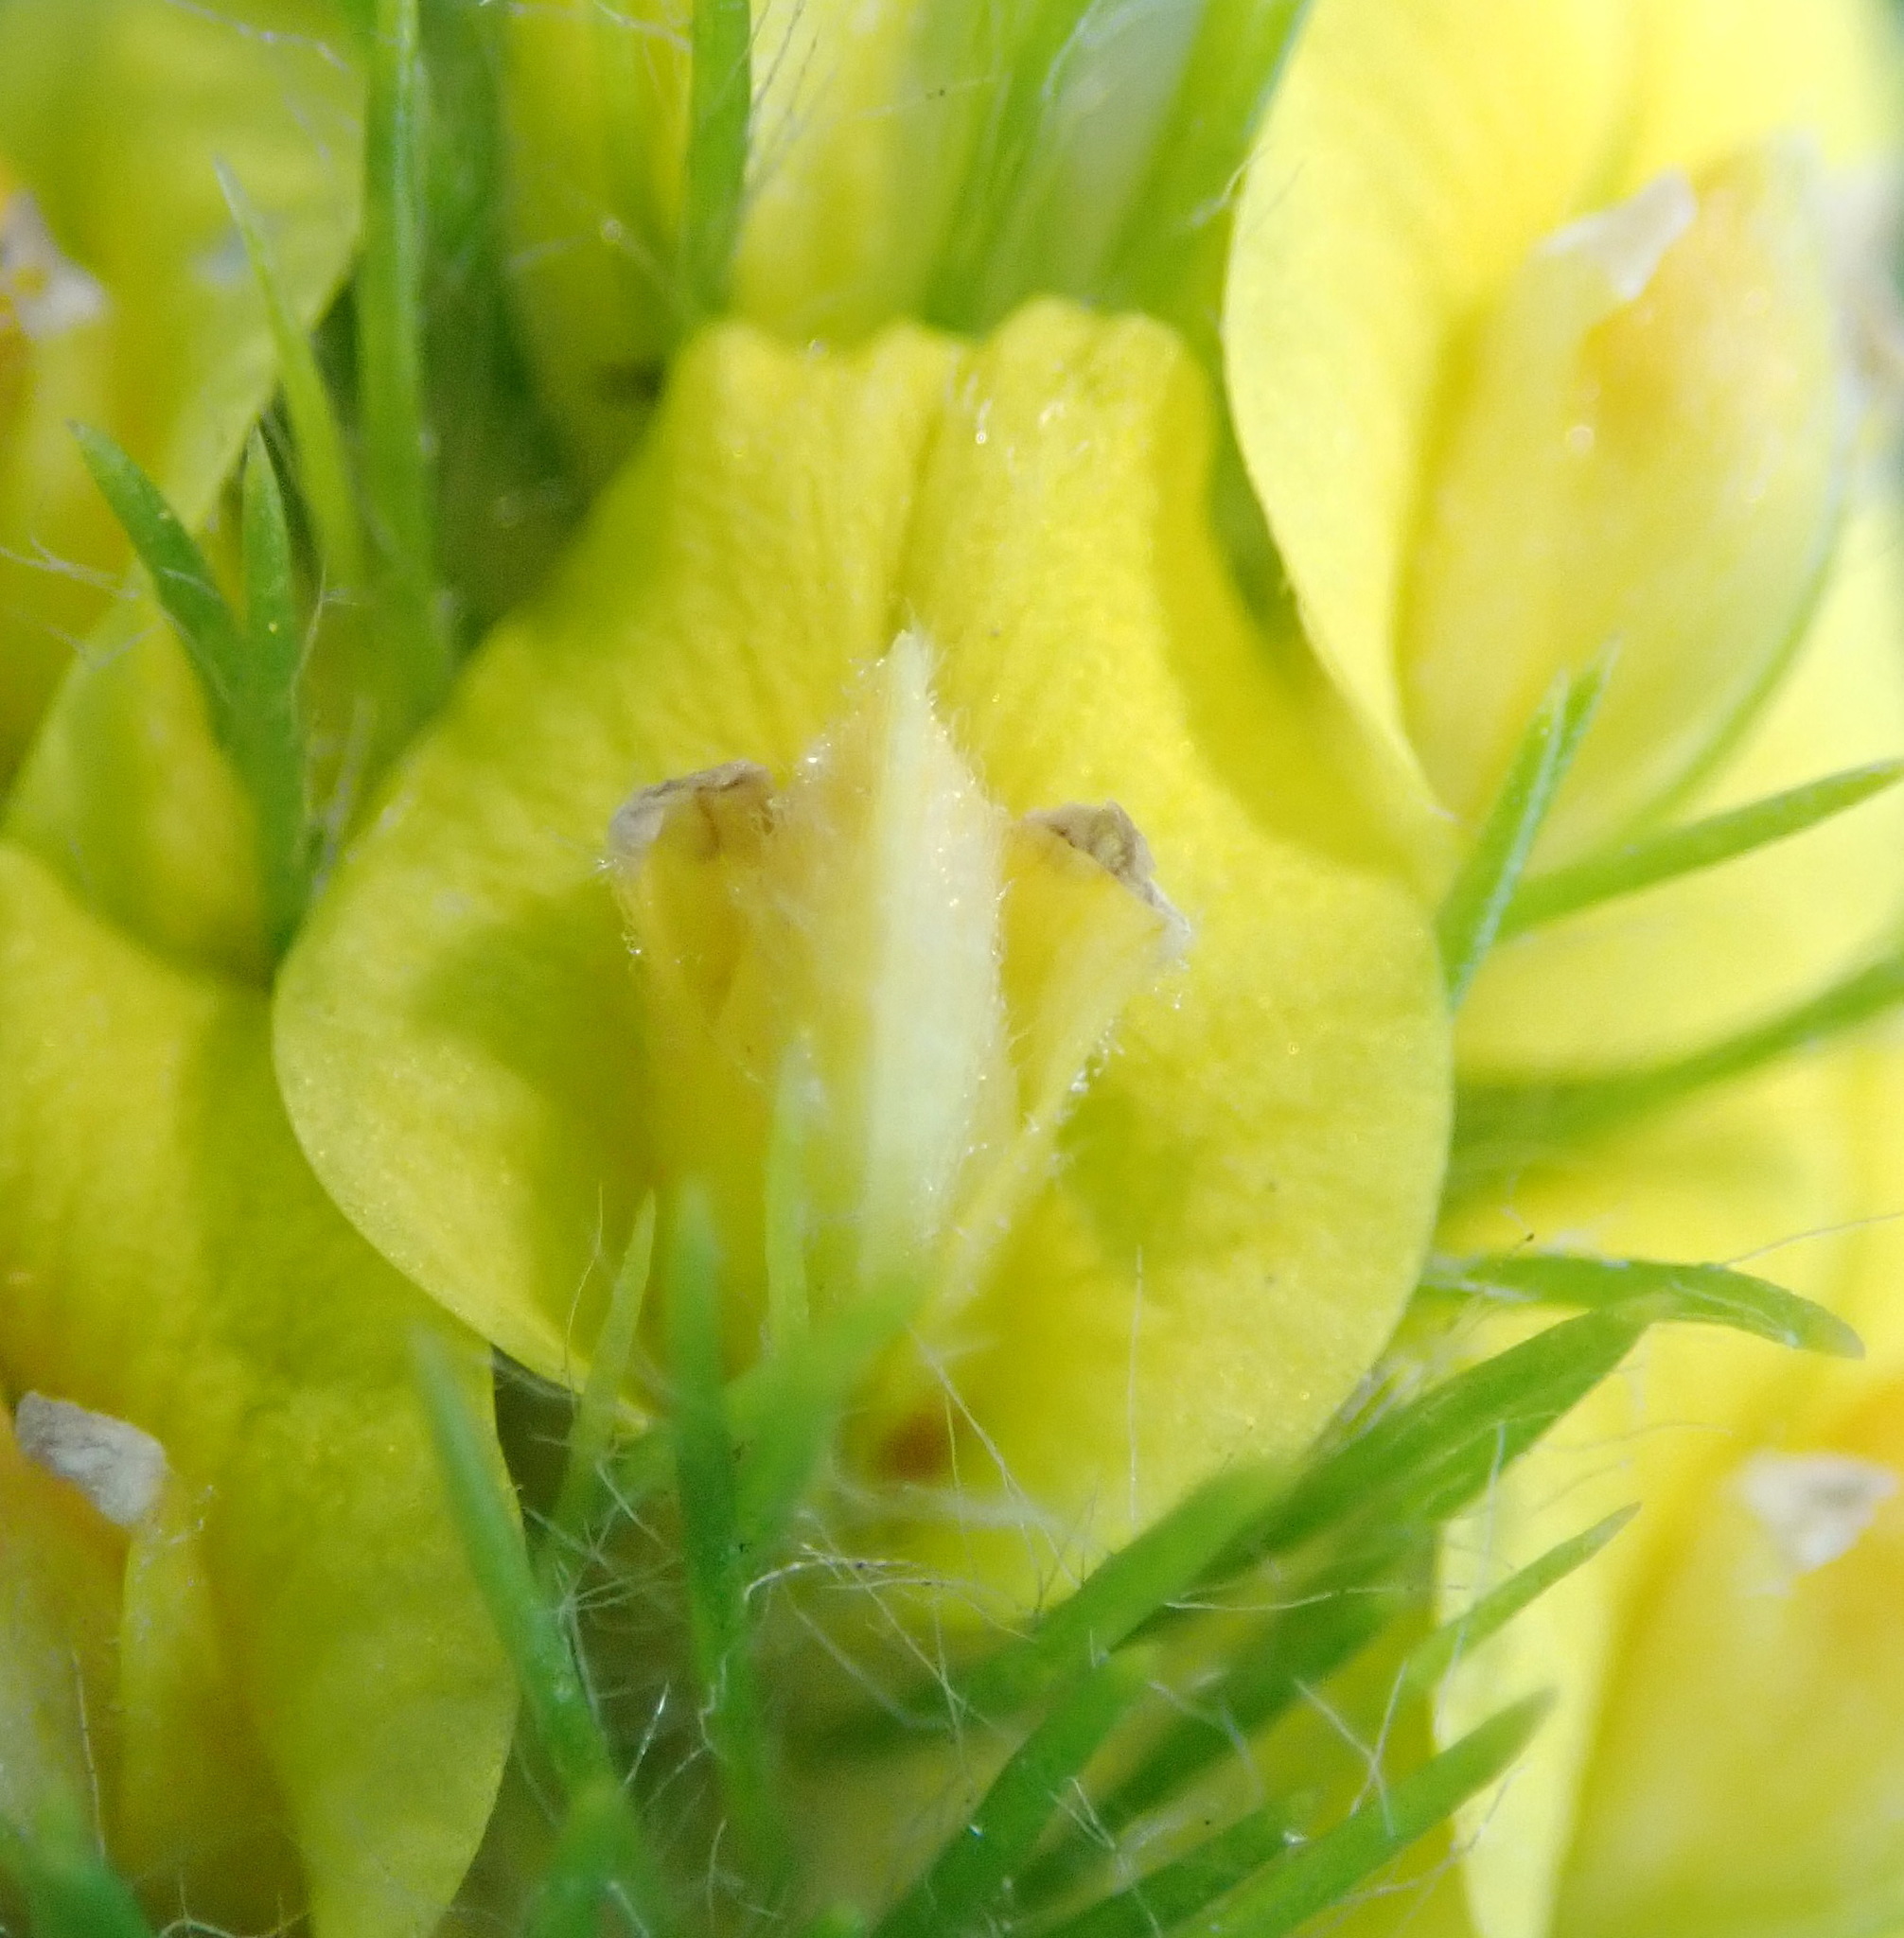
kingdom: Plantae
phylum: Tracheophyta
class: Magnoliopsida
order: Fabales
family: Fabaceae
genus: Aspalathus
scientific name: Aspalathus alopecurus
